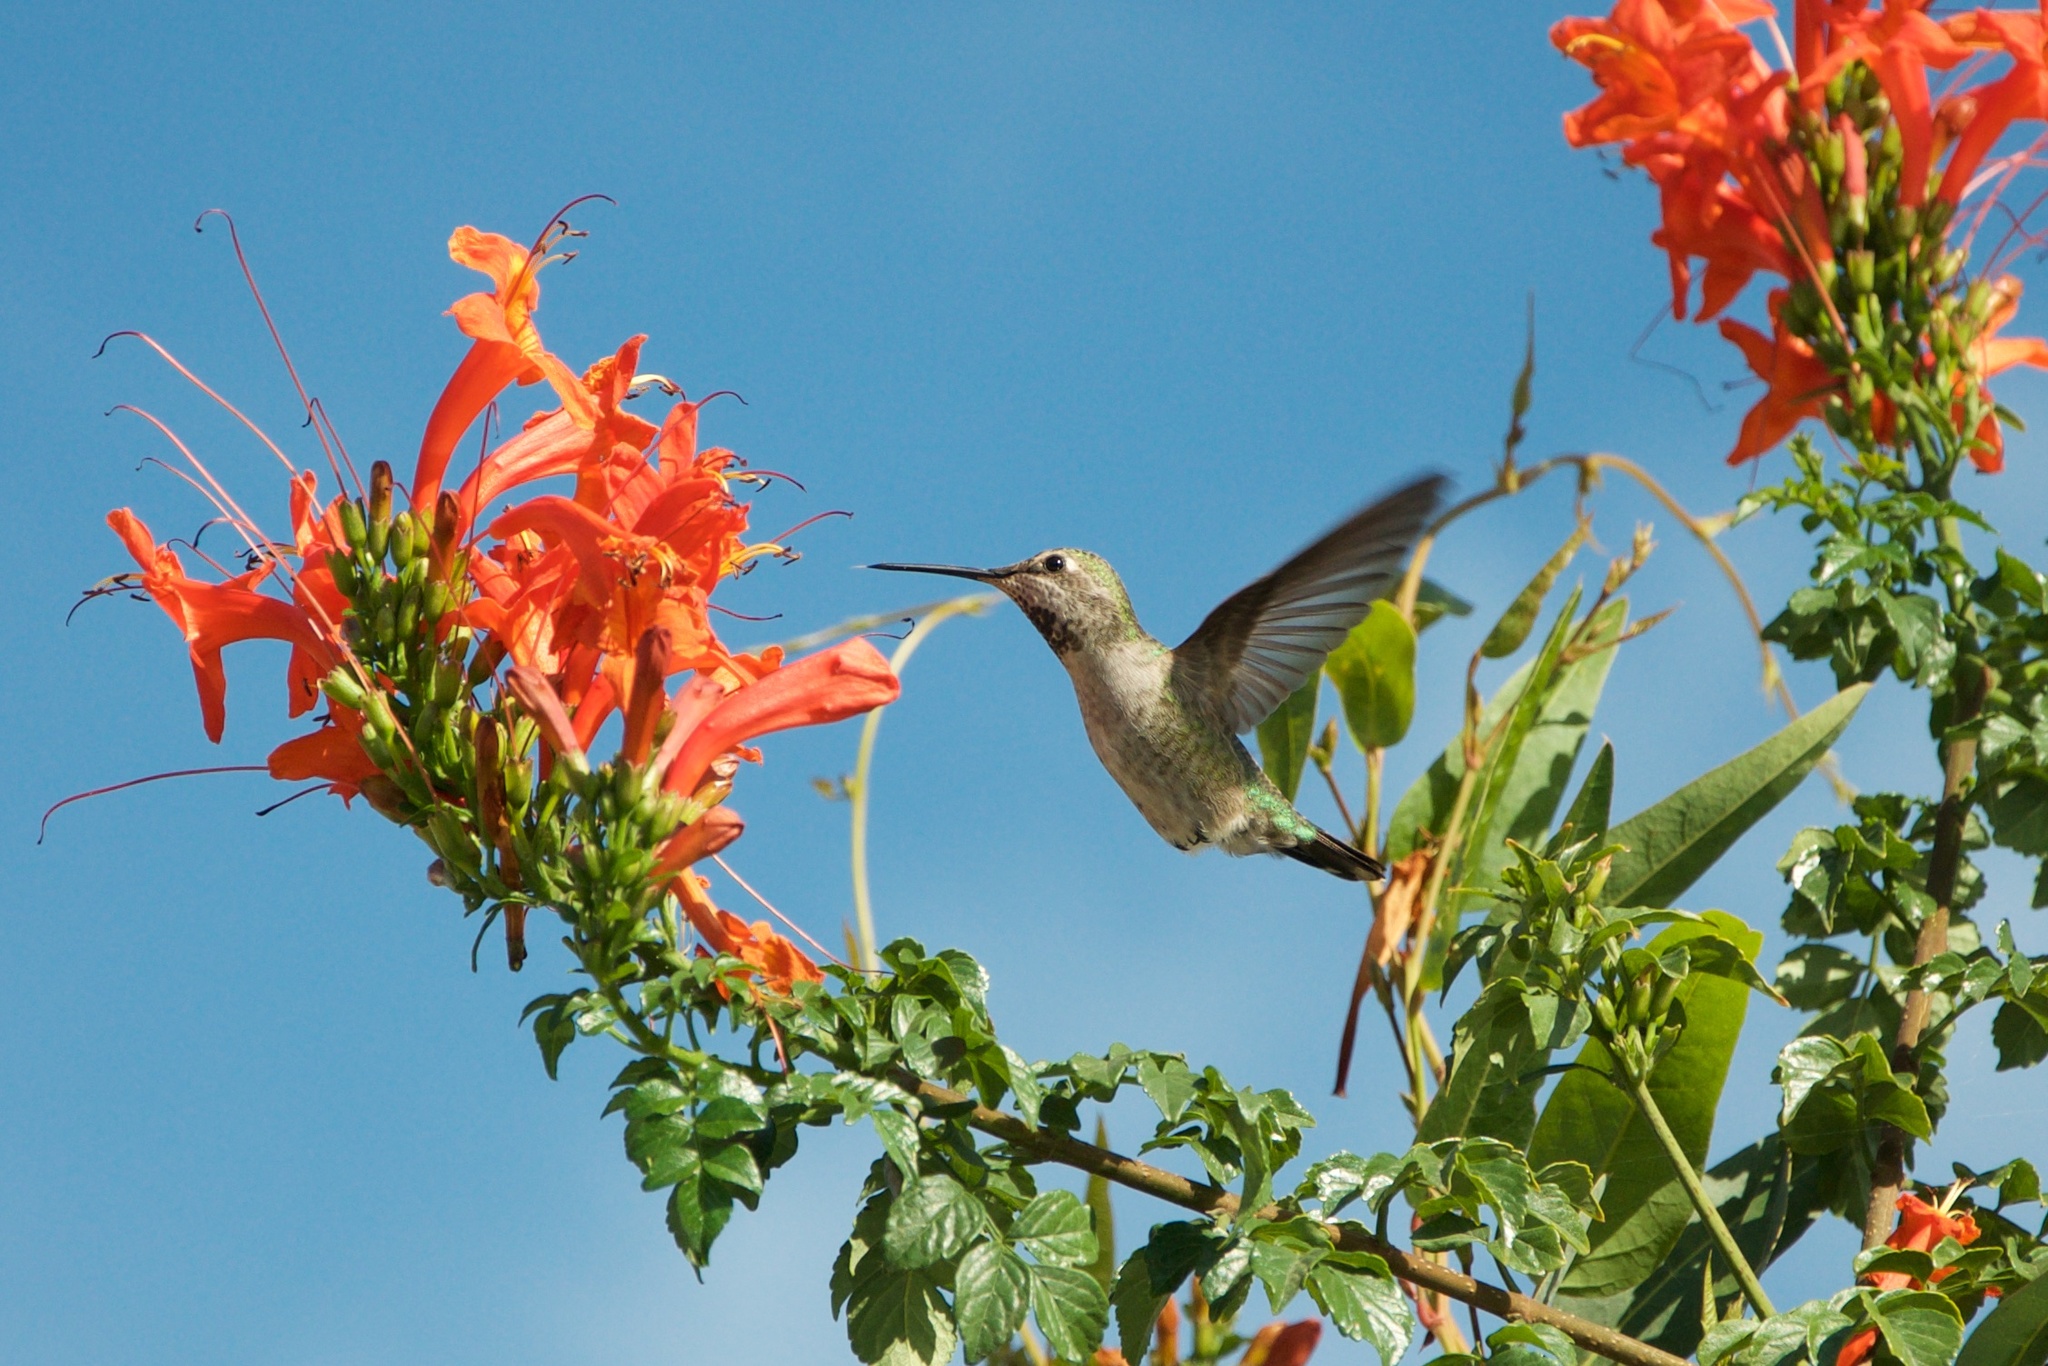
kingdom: Animalia
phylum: Chordata
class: Aves
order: Apodiformes
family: Trochilidae
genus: Calypte
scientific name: Calypte anna
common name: Anna's hummingbird
